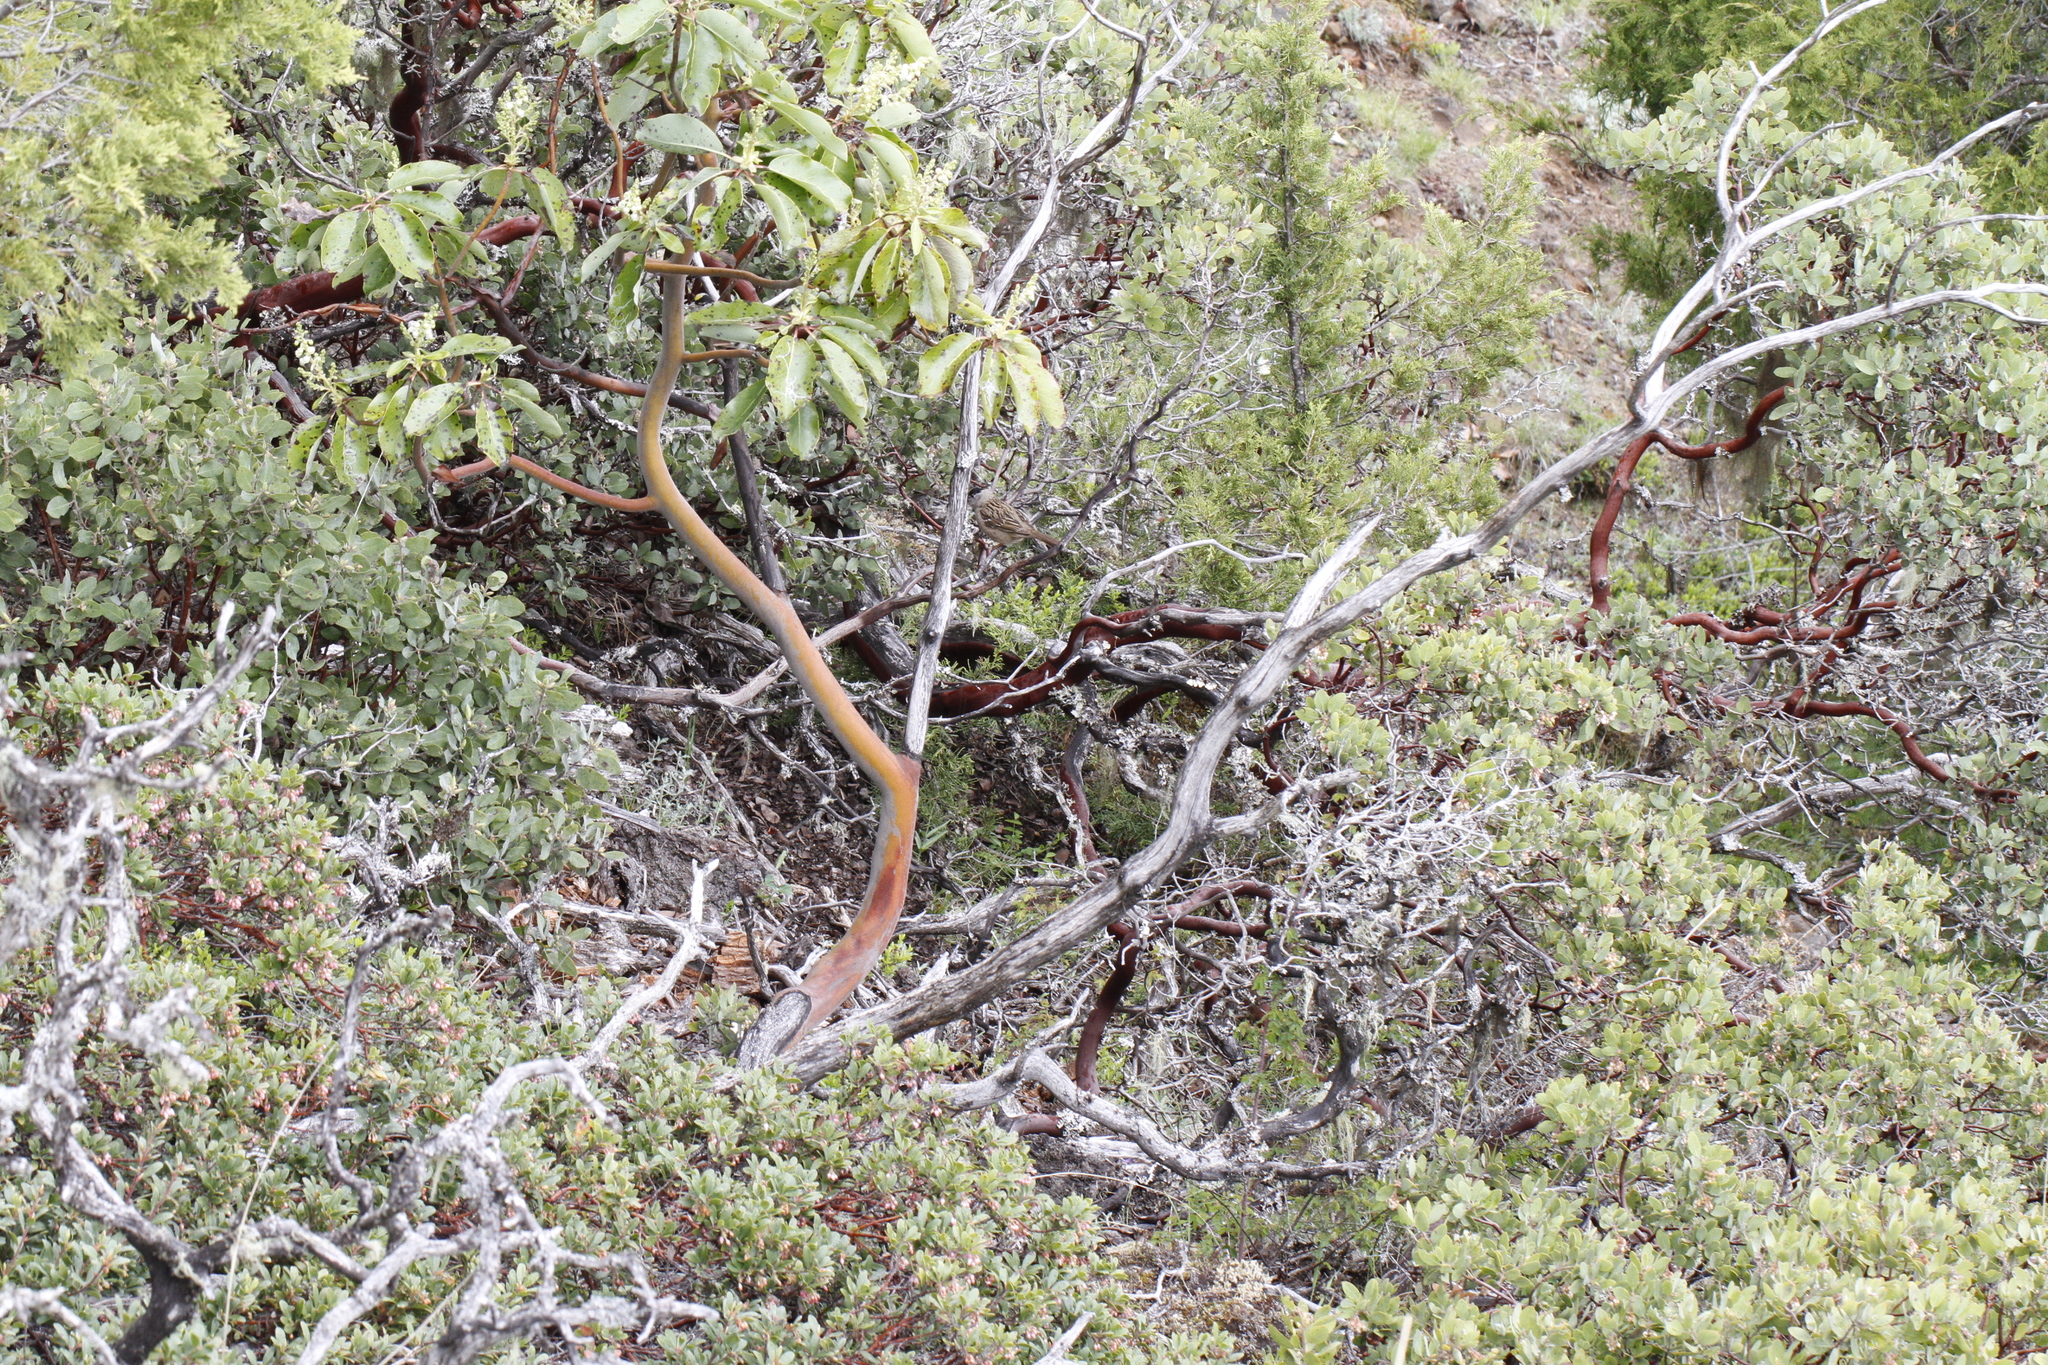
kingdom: Plantae
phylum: Tracheophyta
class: Magnoliopsida
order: Ericales
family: Ericaceae
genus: Arctostaphylos
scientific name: Arctostaphylos columbiana
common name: Bristly bearberry
